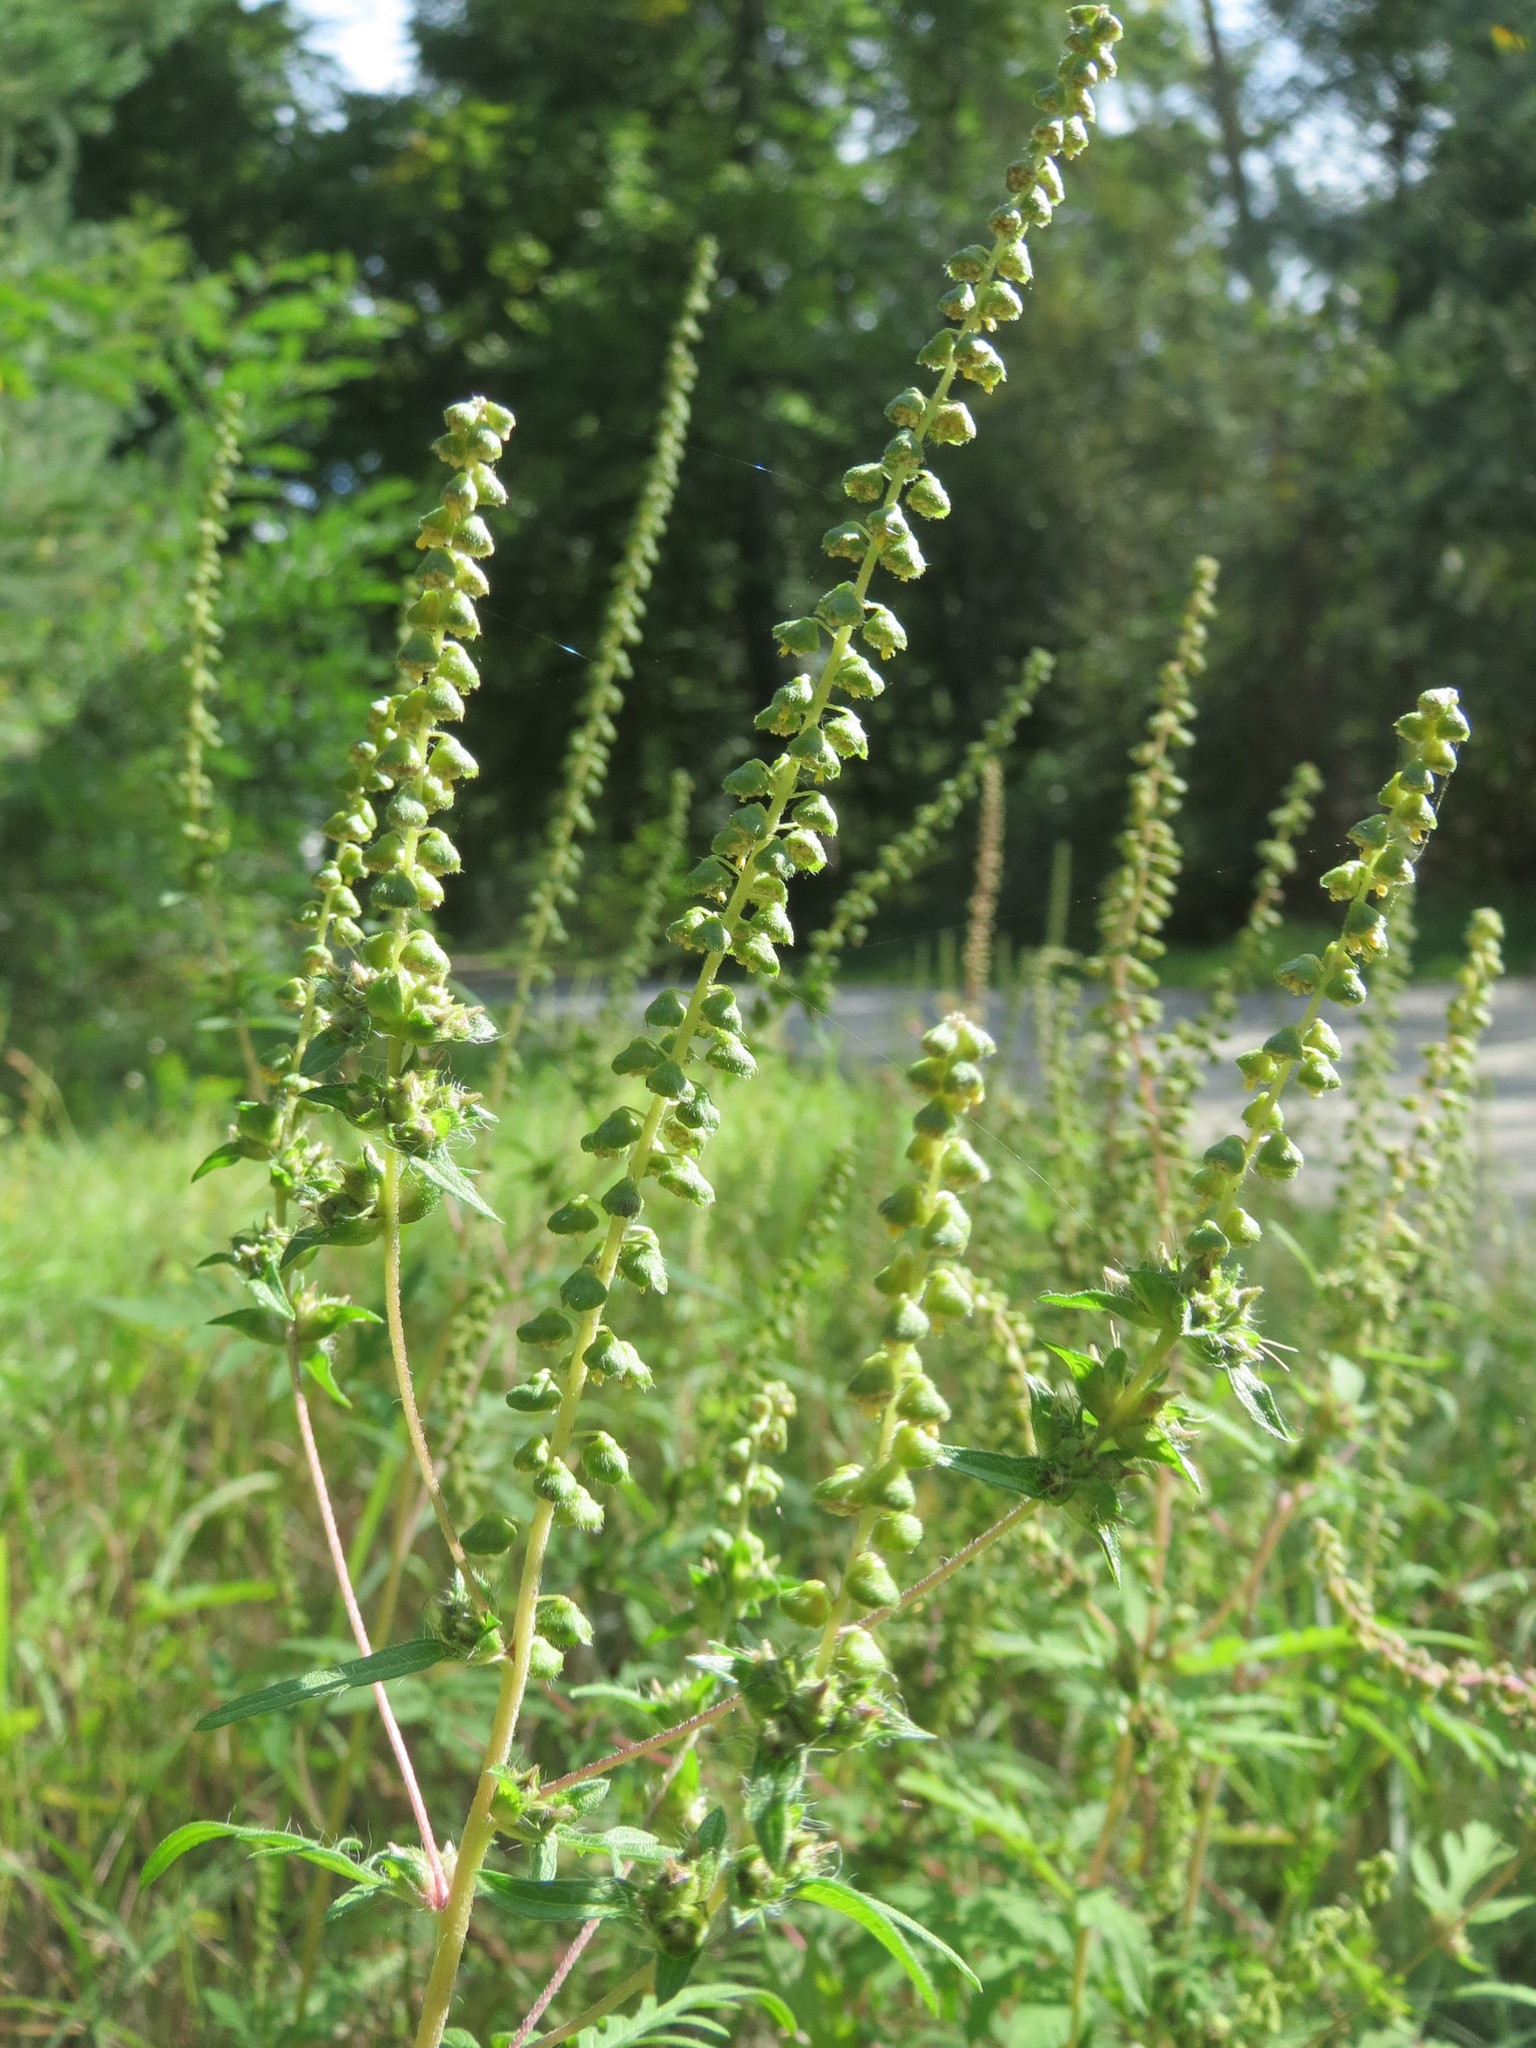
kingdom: Plantae
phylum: Tracheophyta
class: Magnoliopsida
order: Asterales
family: Asteraceae
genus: Ambrosia
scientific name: Ambrosia artemisiifolia
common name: Annual ragweed
